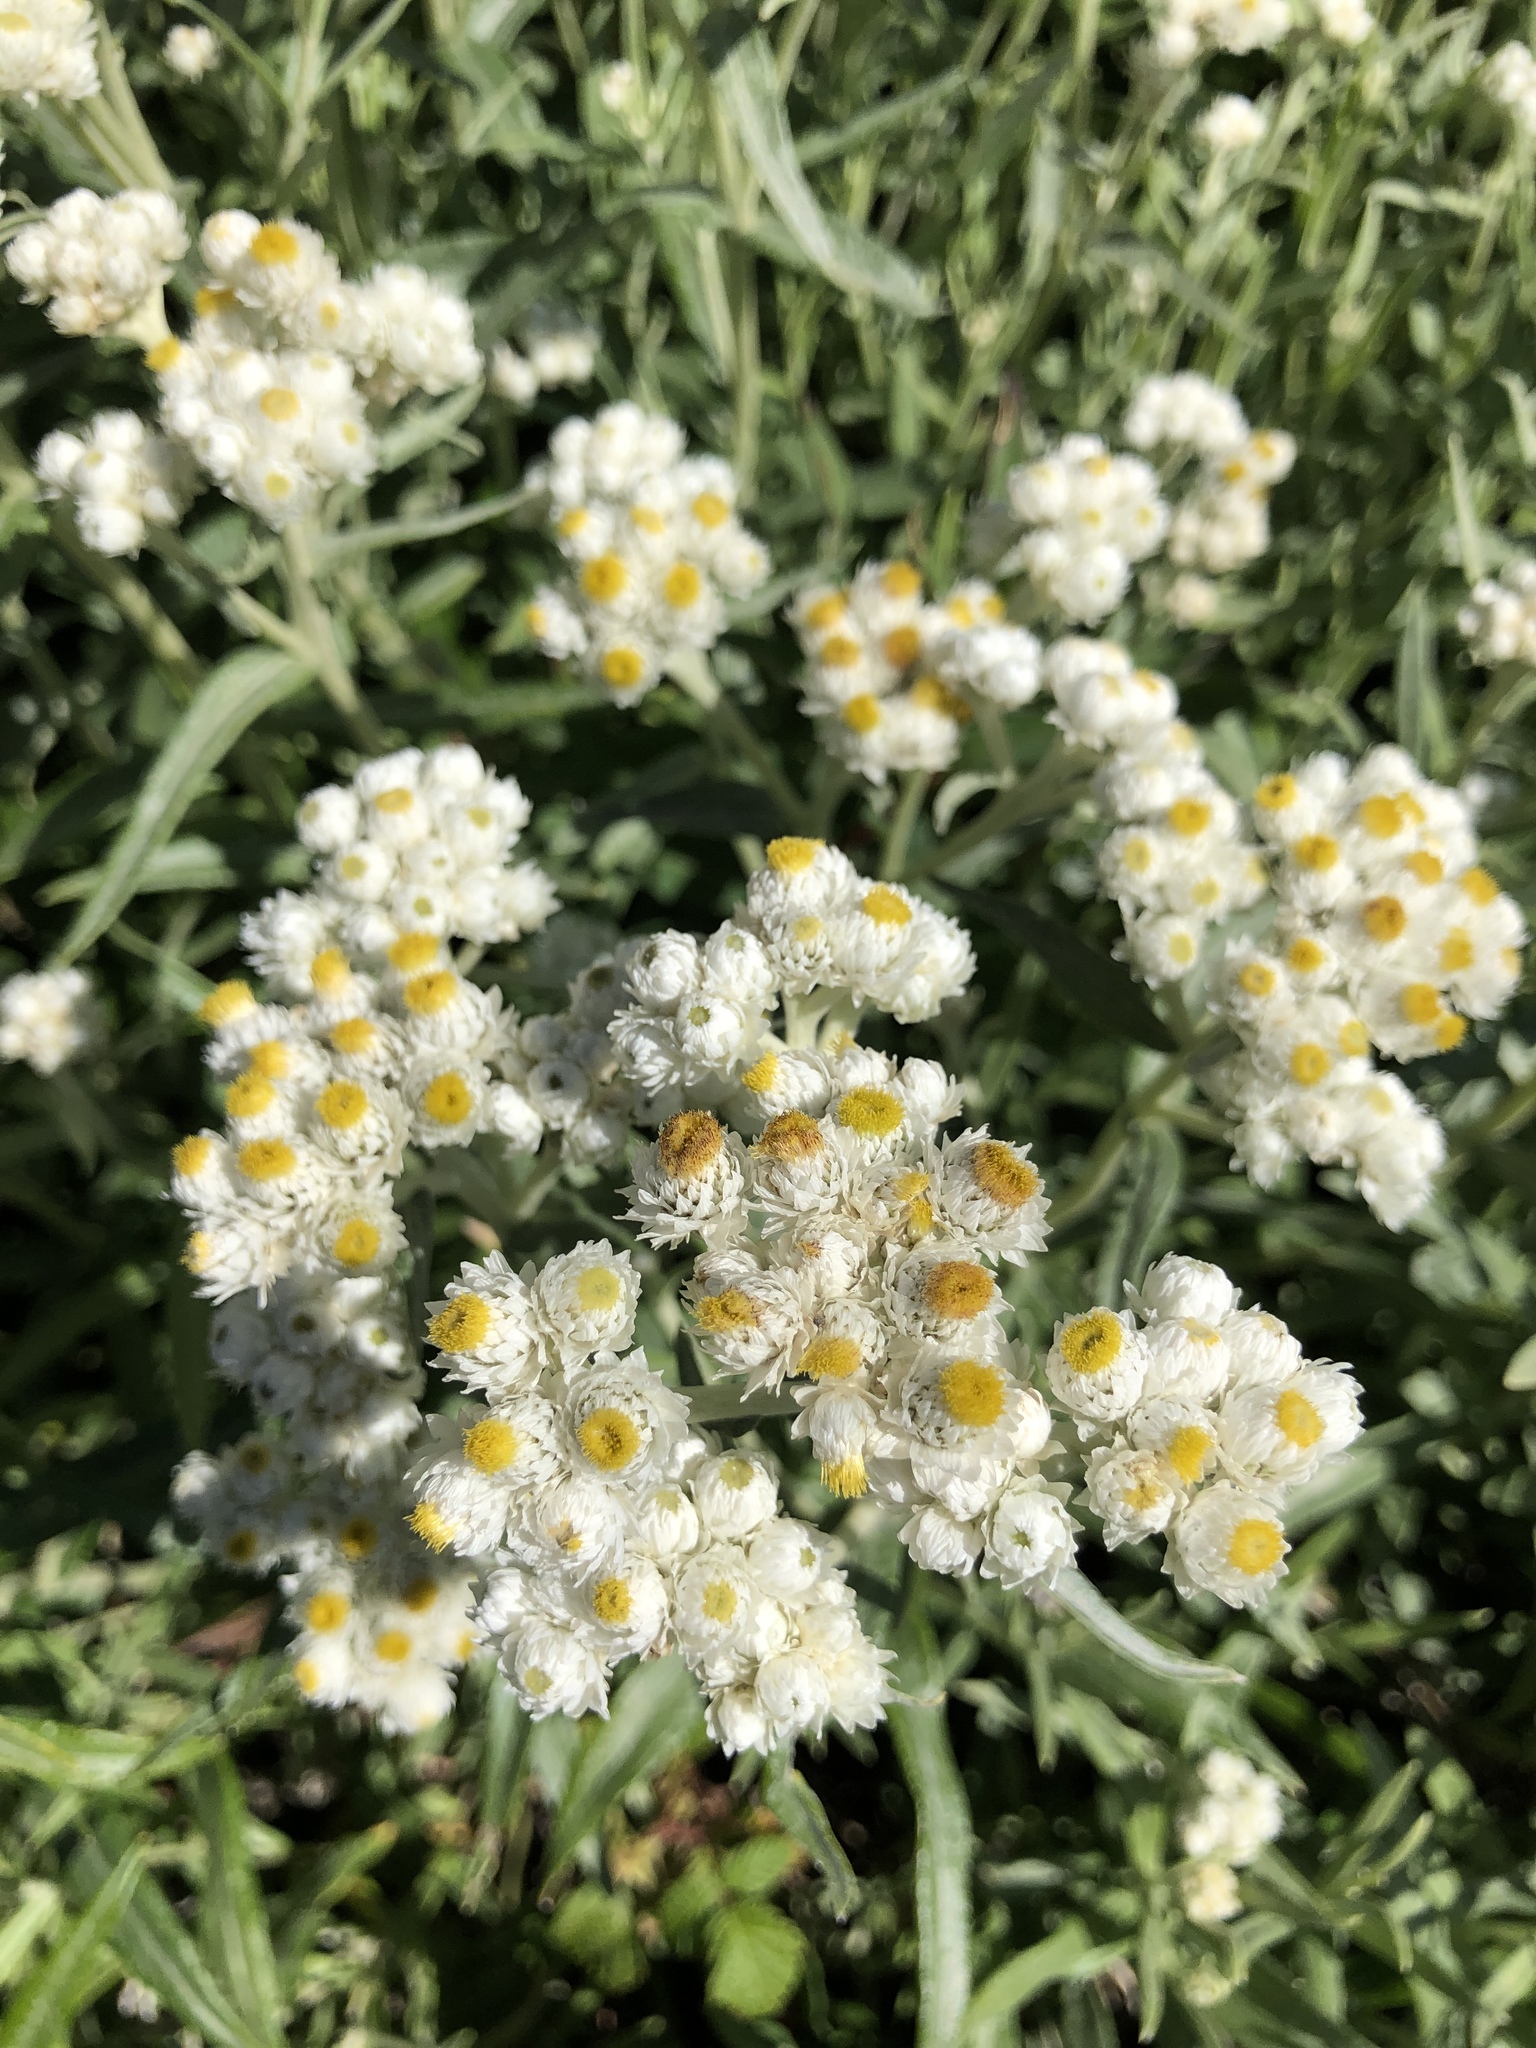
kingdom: Plantae
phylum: Tracheophyta
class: Magnoliopsida
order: Asterales
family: Asteraceae
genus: Anaphalis
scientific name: Anaphalis margaritacea
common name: Pearly everlasting
